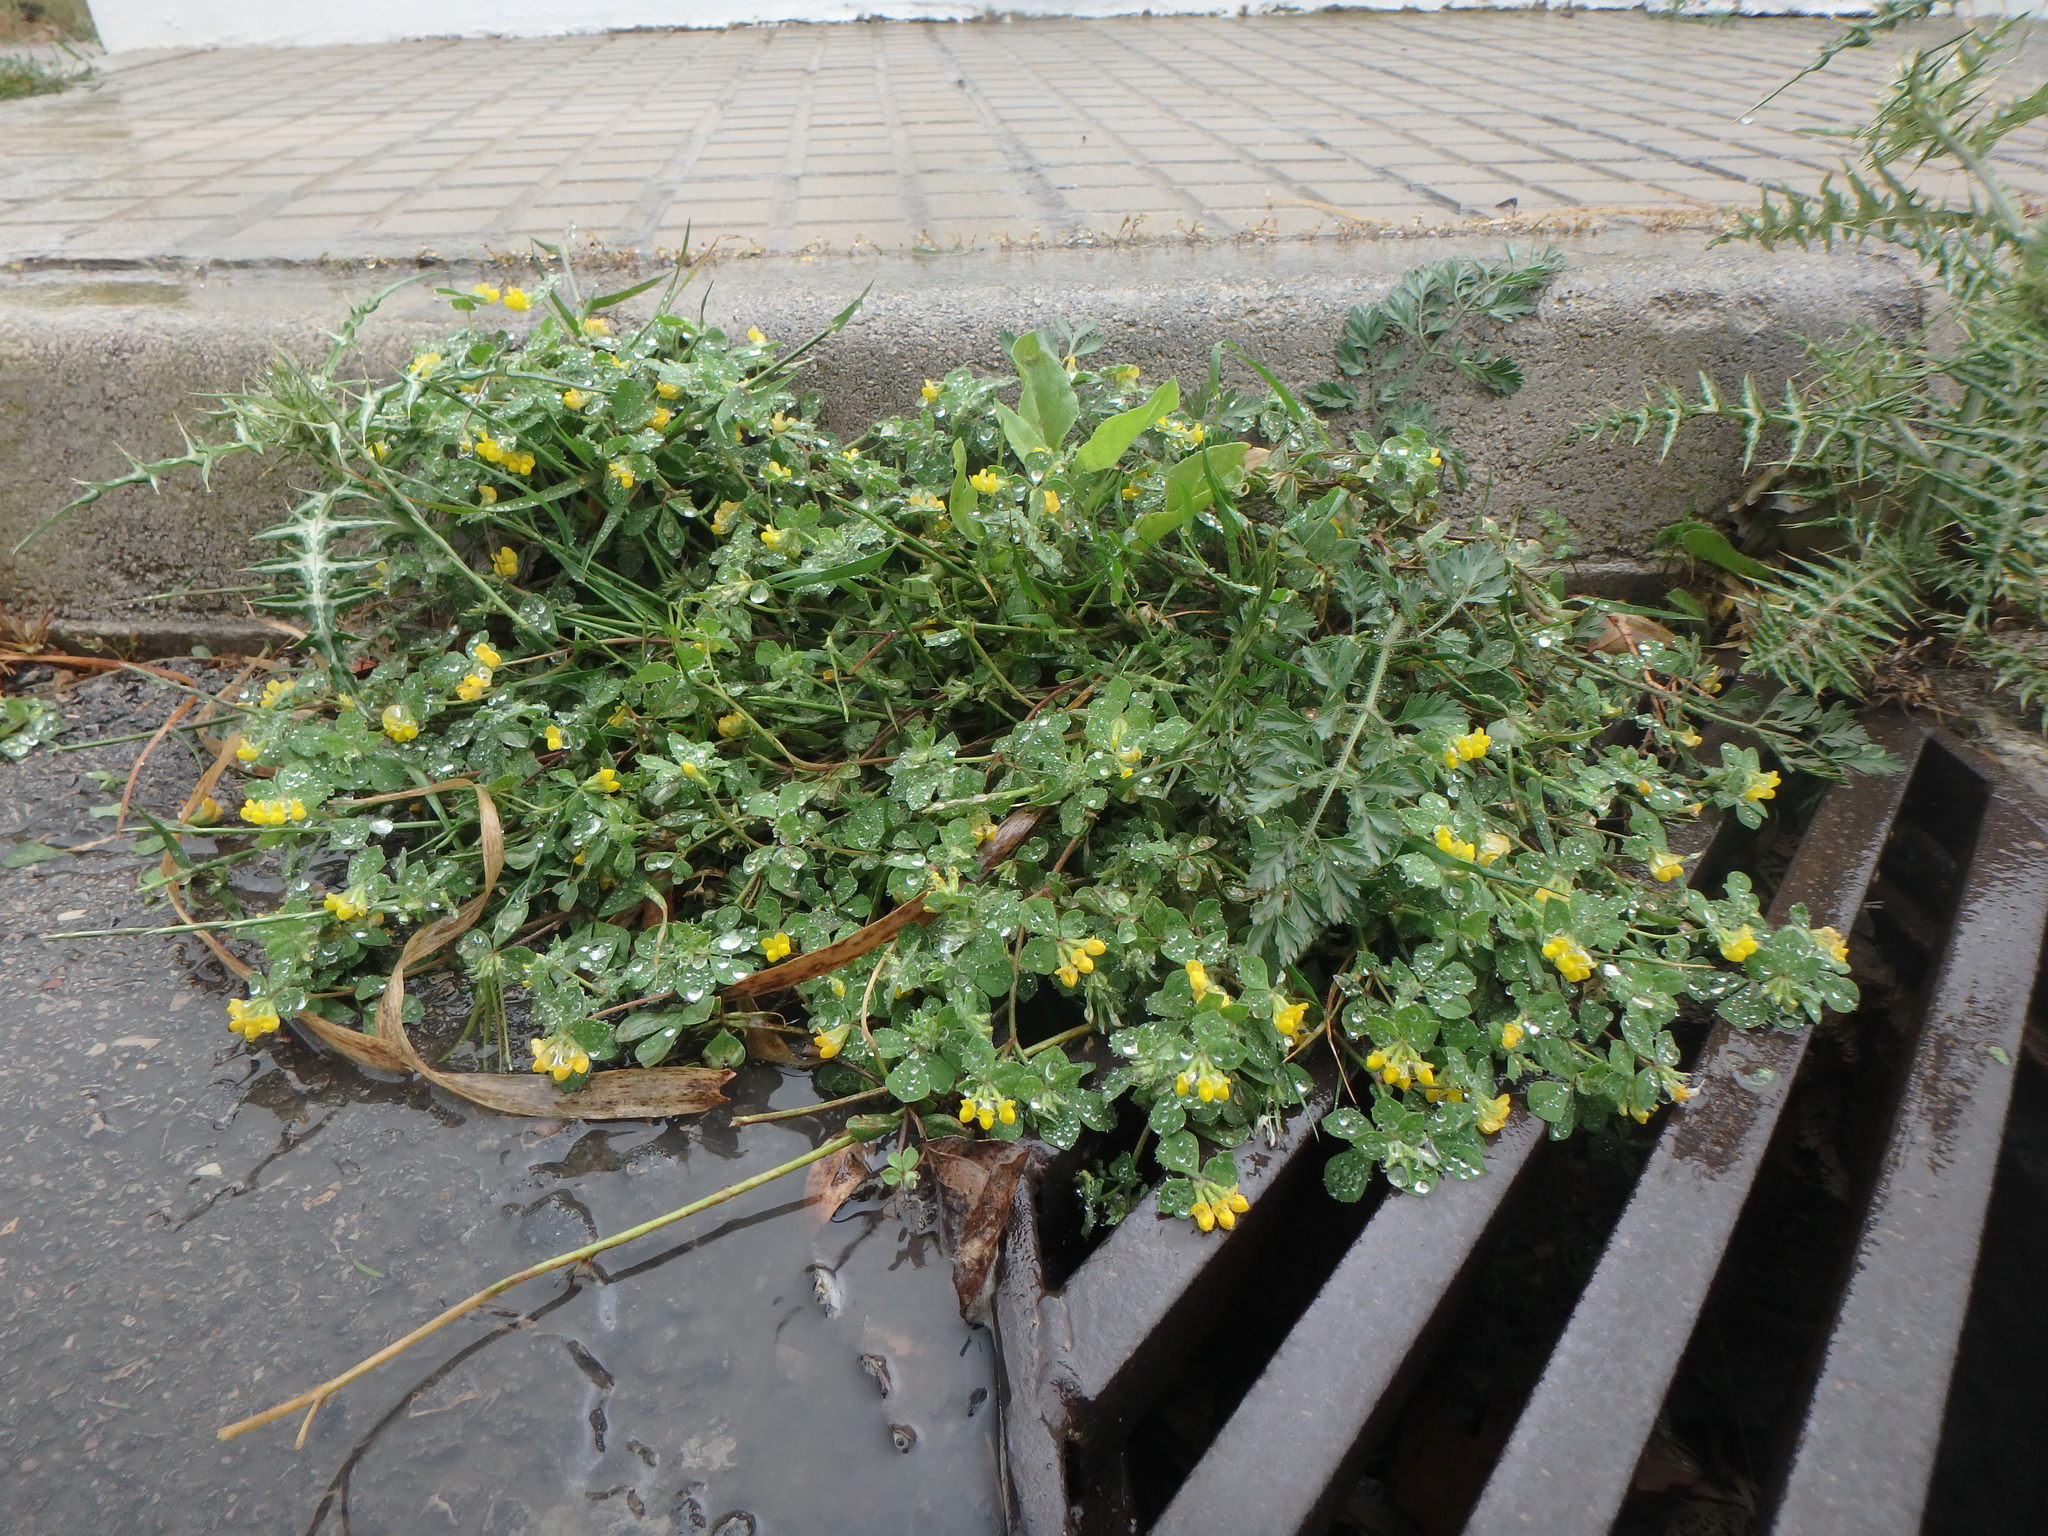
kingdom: Plantae
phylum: Tracheophyta
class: Magnoliopsida
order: Fabales
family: Fabaceae
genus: Lotus
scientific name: Lotus ornithopodioides
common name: Southern bird's-foot trefoil
